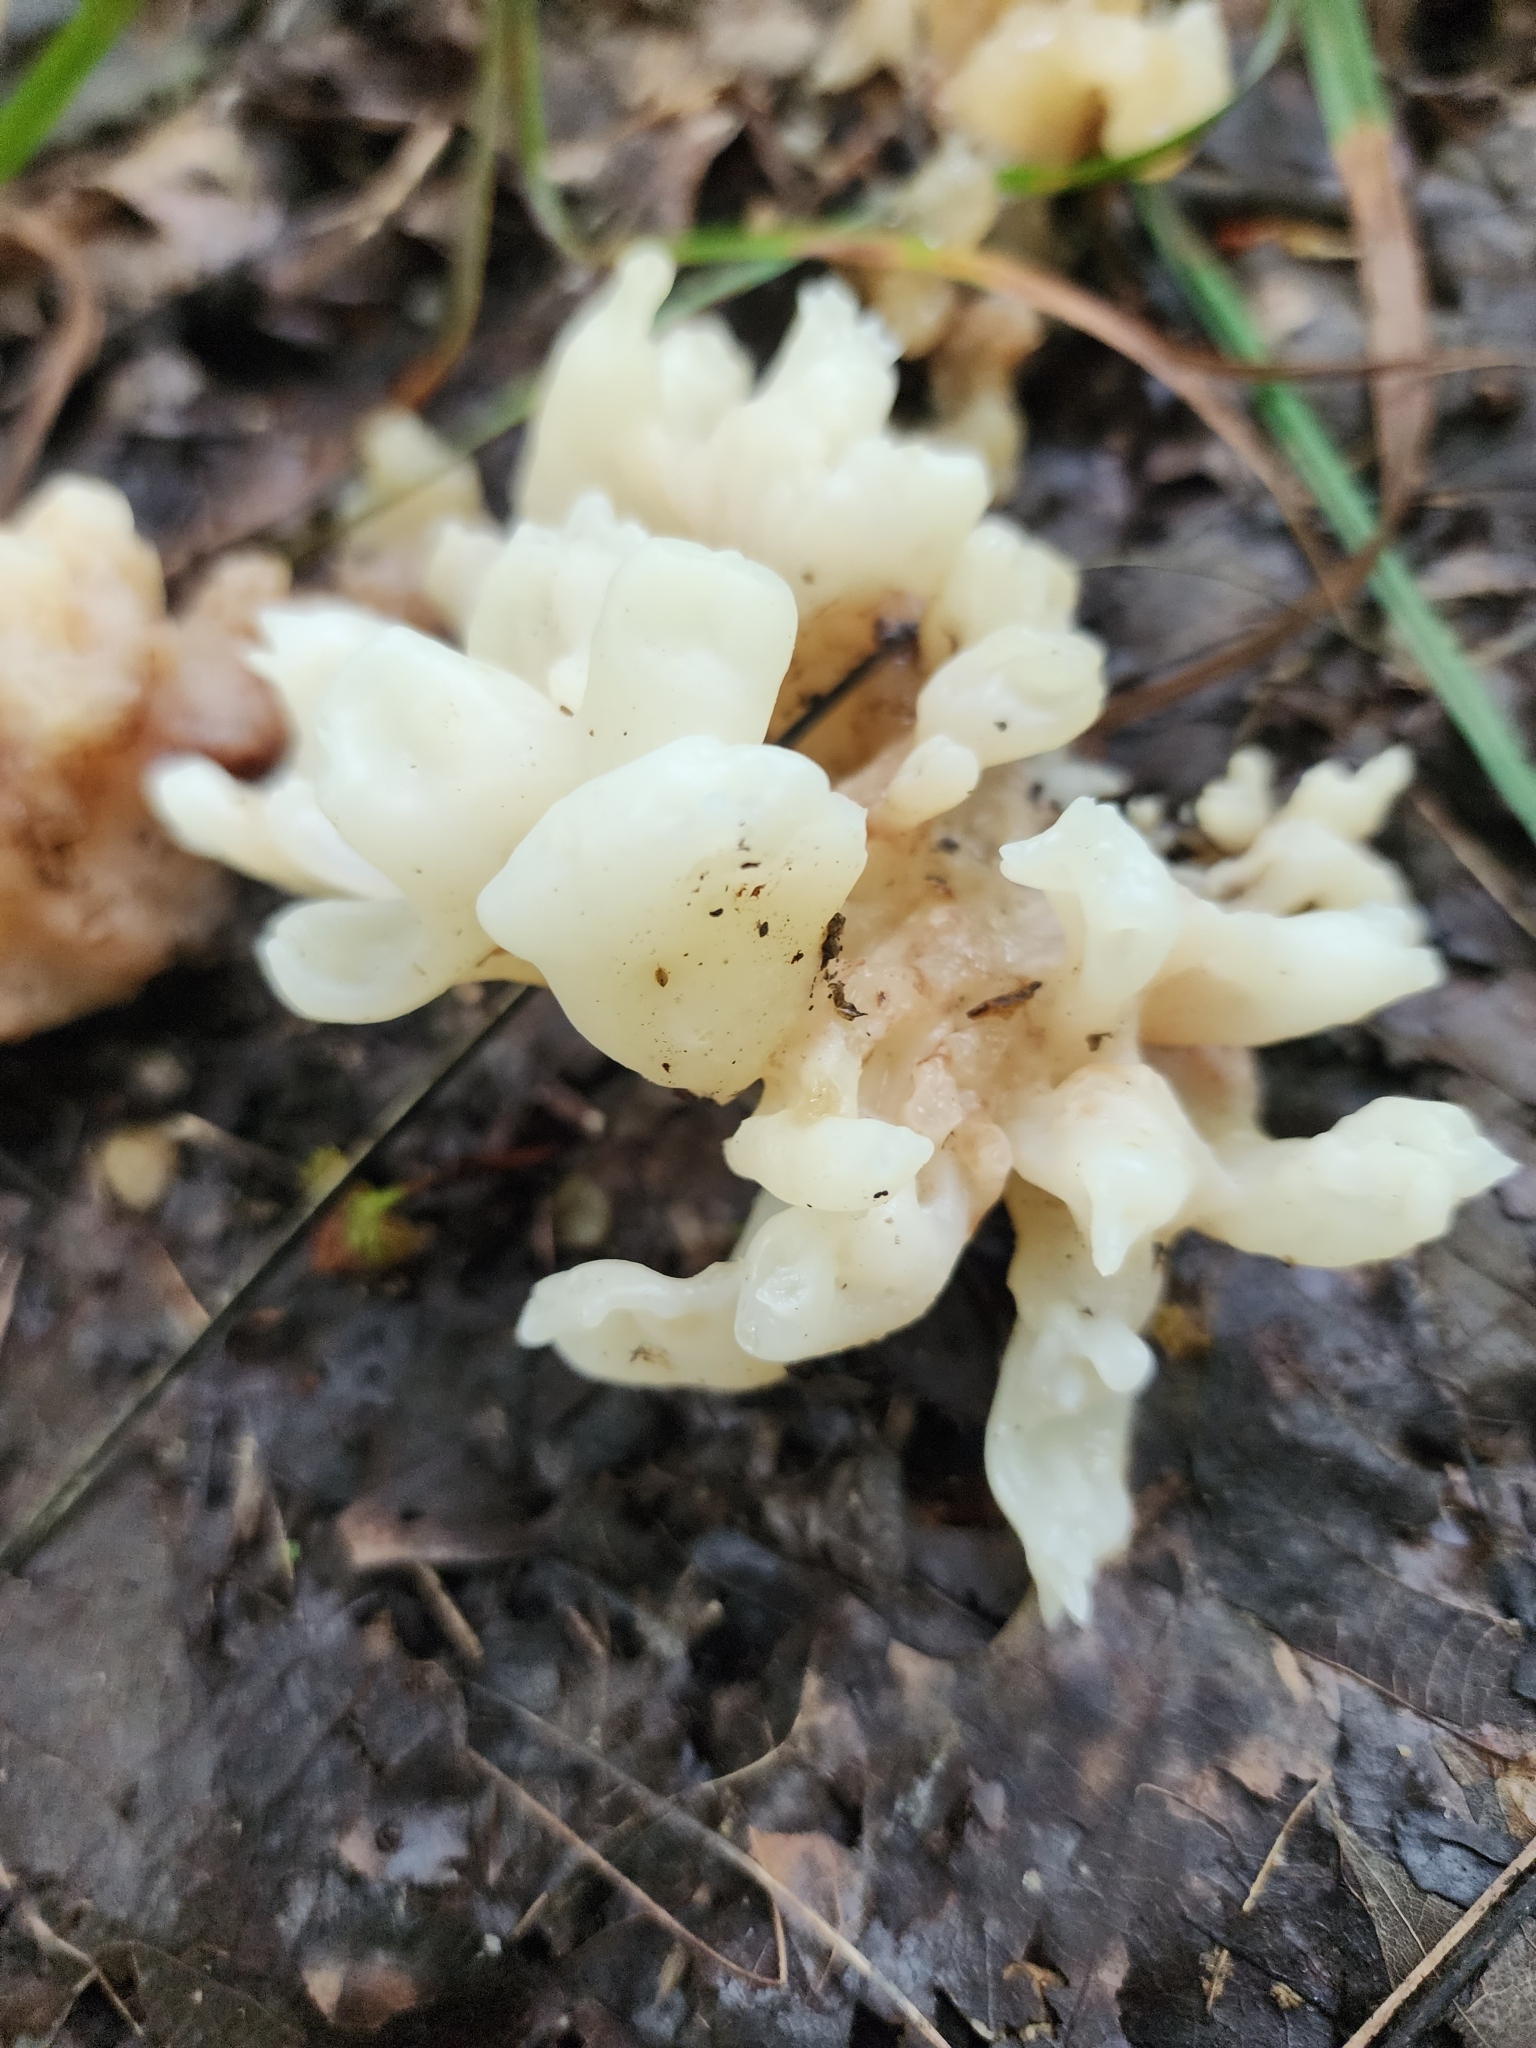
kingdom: Fungi
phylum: Basidiomycota
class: Agaricomycetes
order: Sebacinales
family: Sebacinaceae
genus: Sebacina
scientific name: Sebacina sparassoidea
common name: White coral jelly fungus
